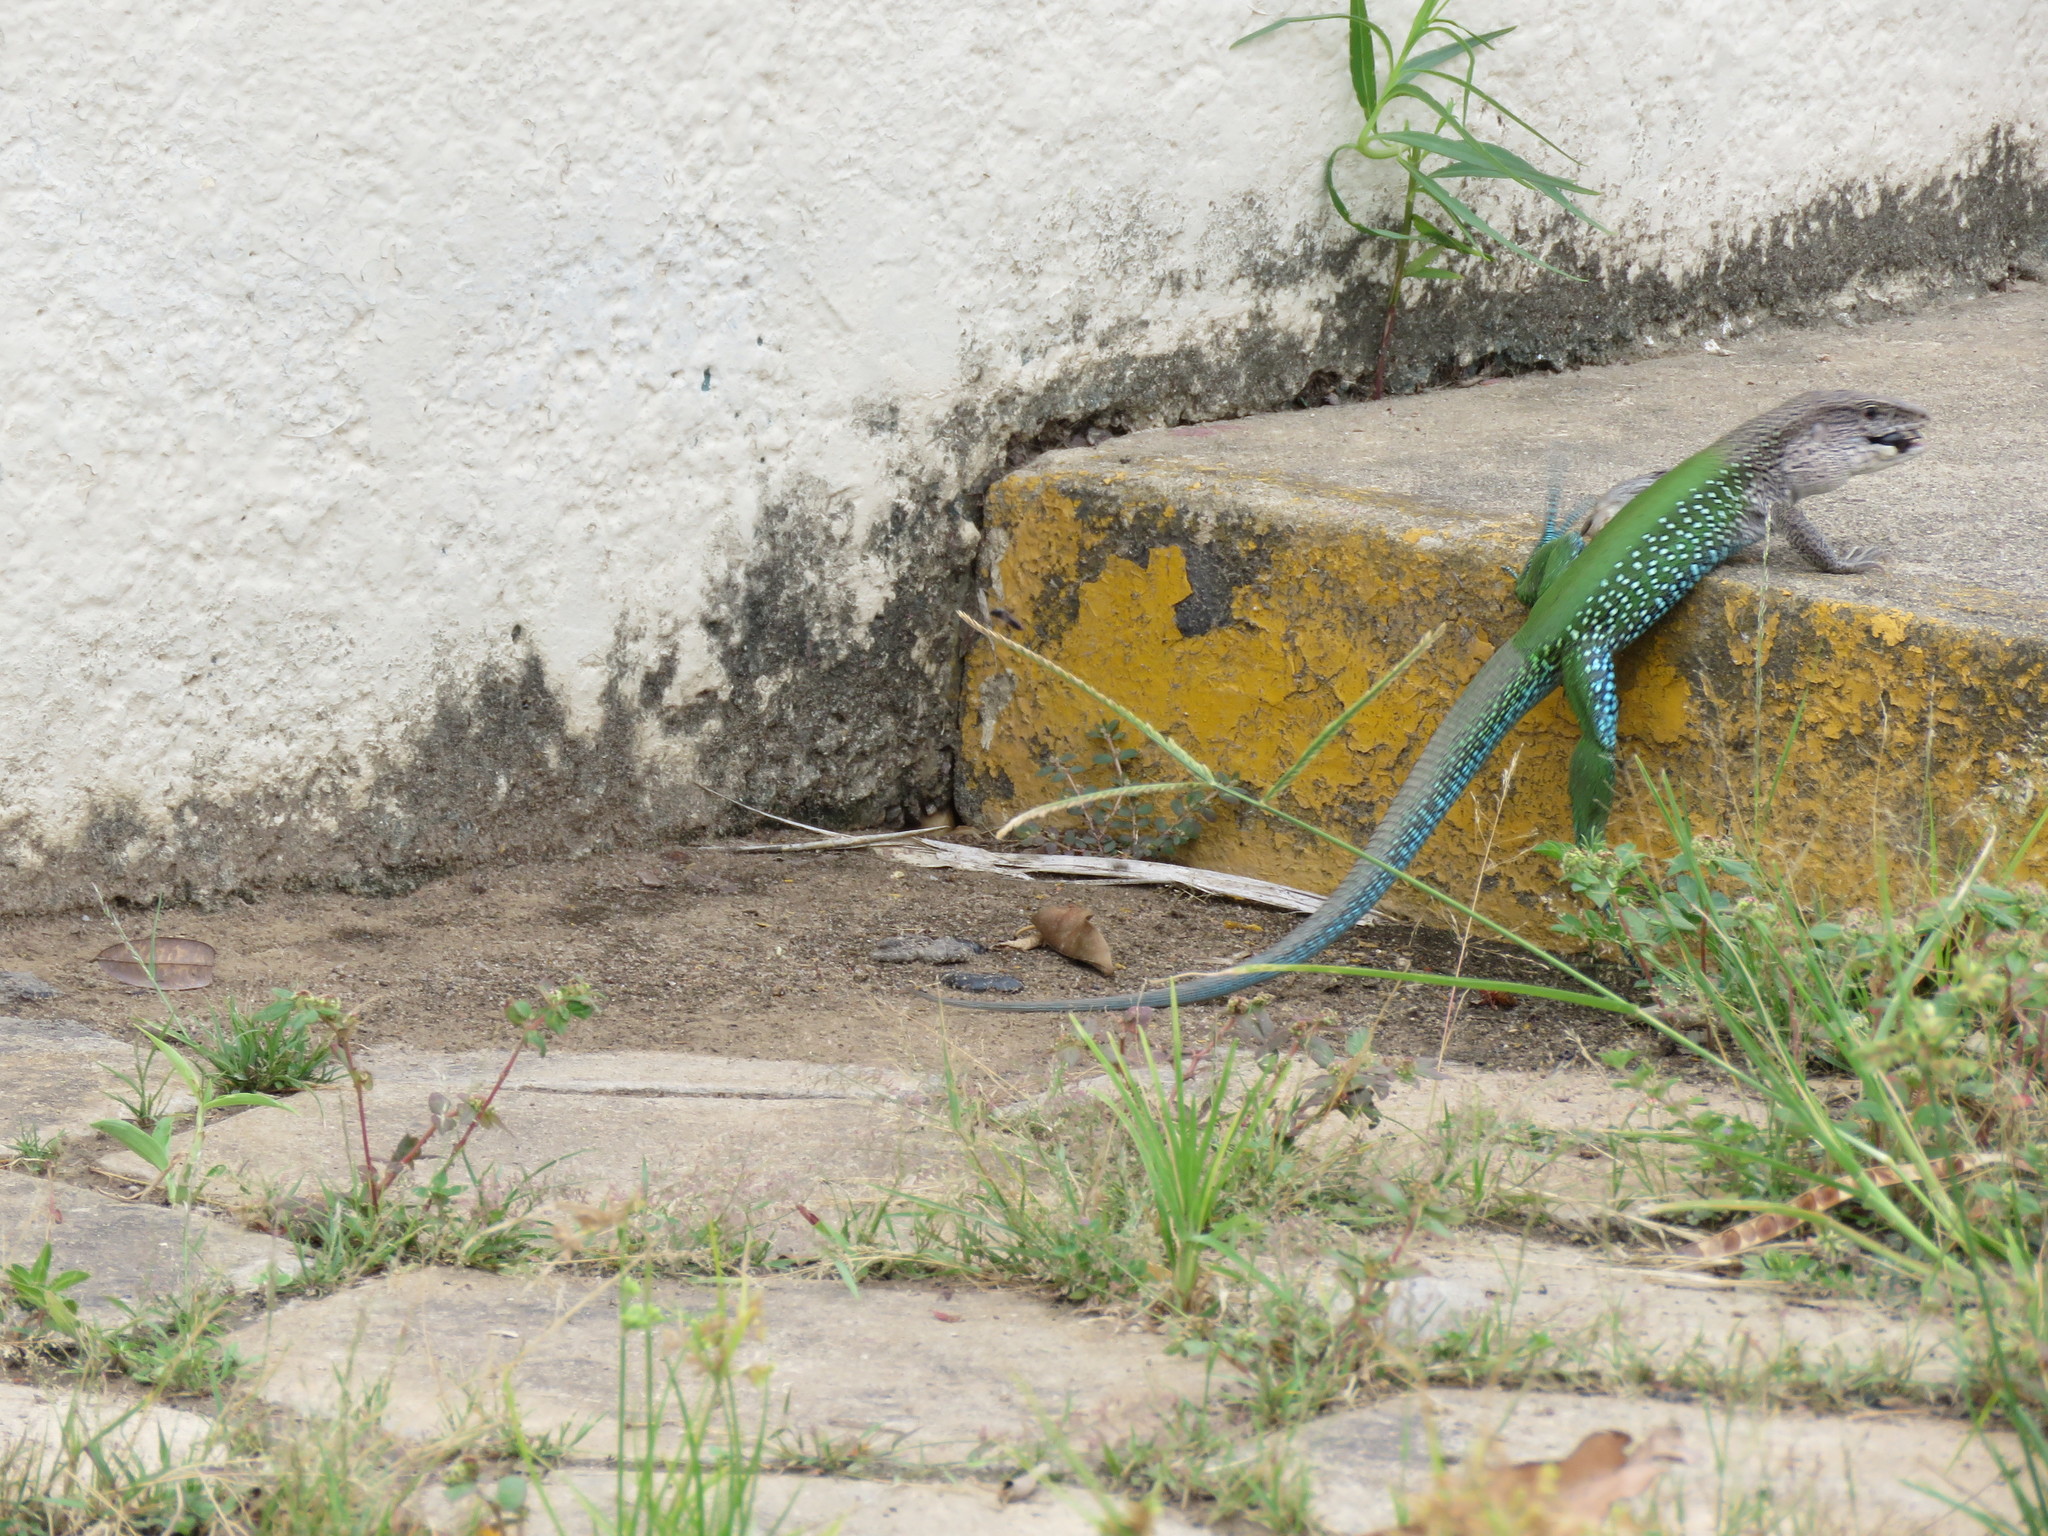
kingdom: Animalia
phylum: Chordata
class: Squamata
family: Teiidae
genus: Ameiva
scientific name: Ameiva ameiva
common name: Giant ameiva
